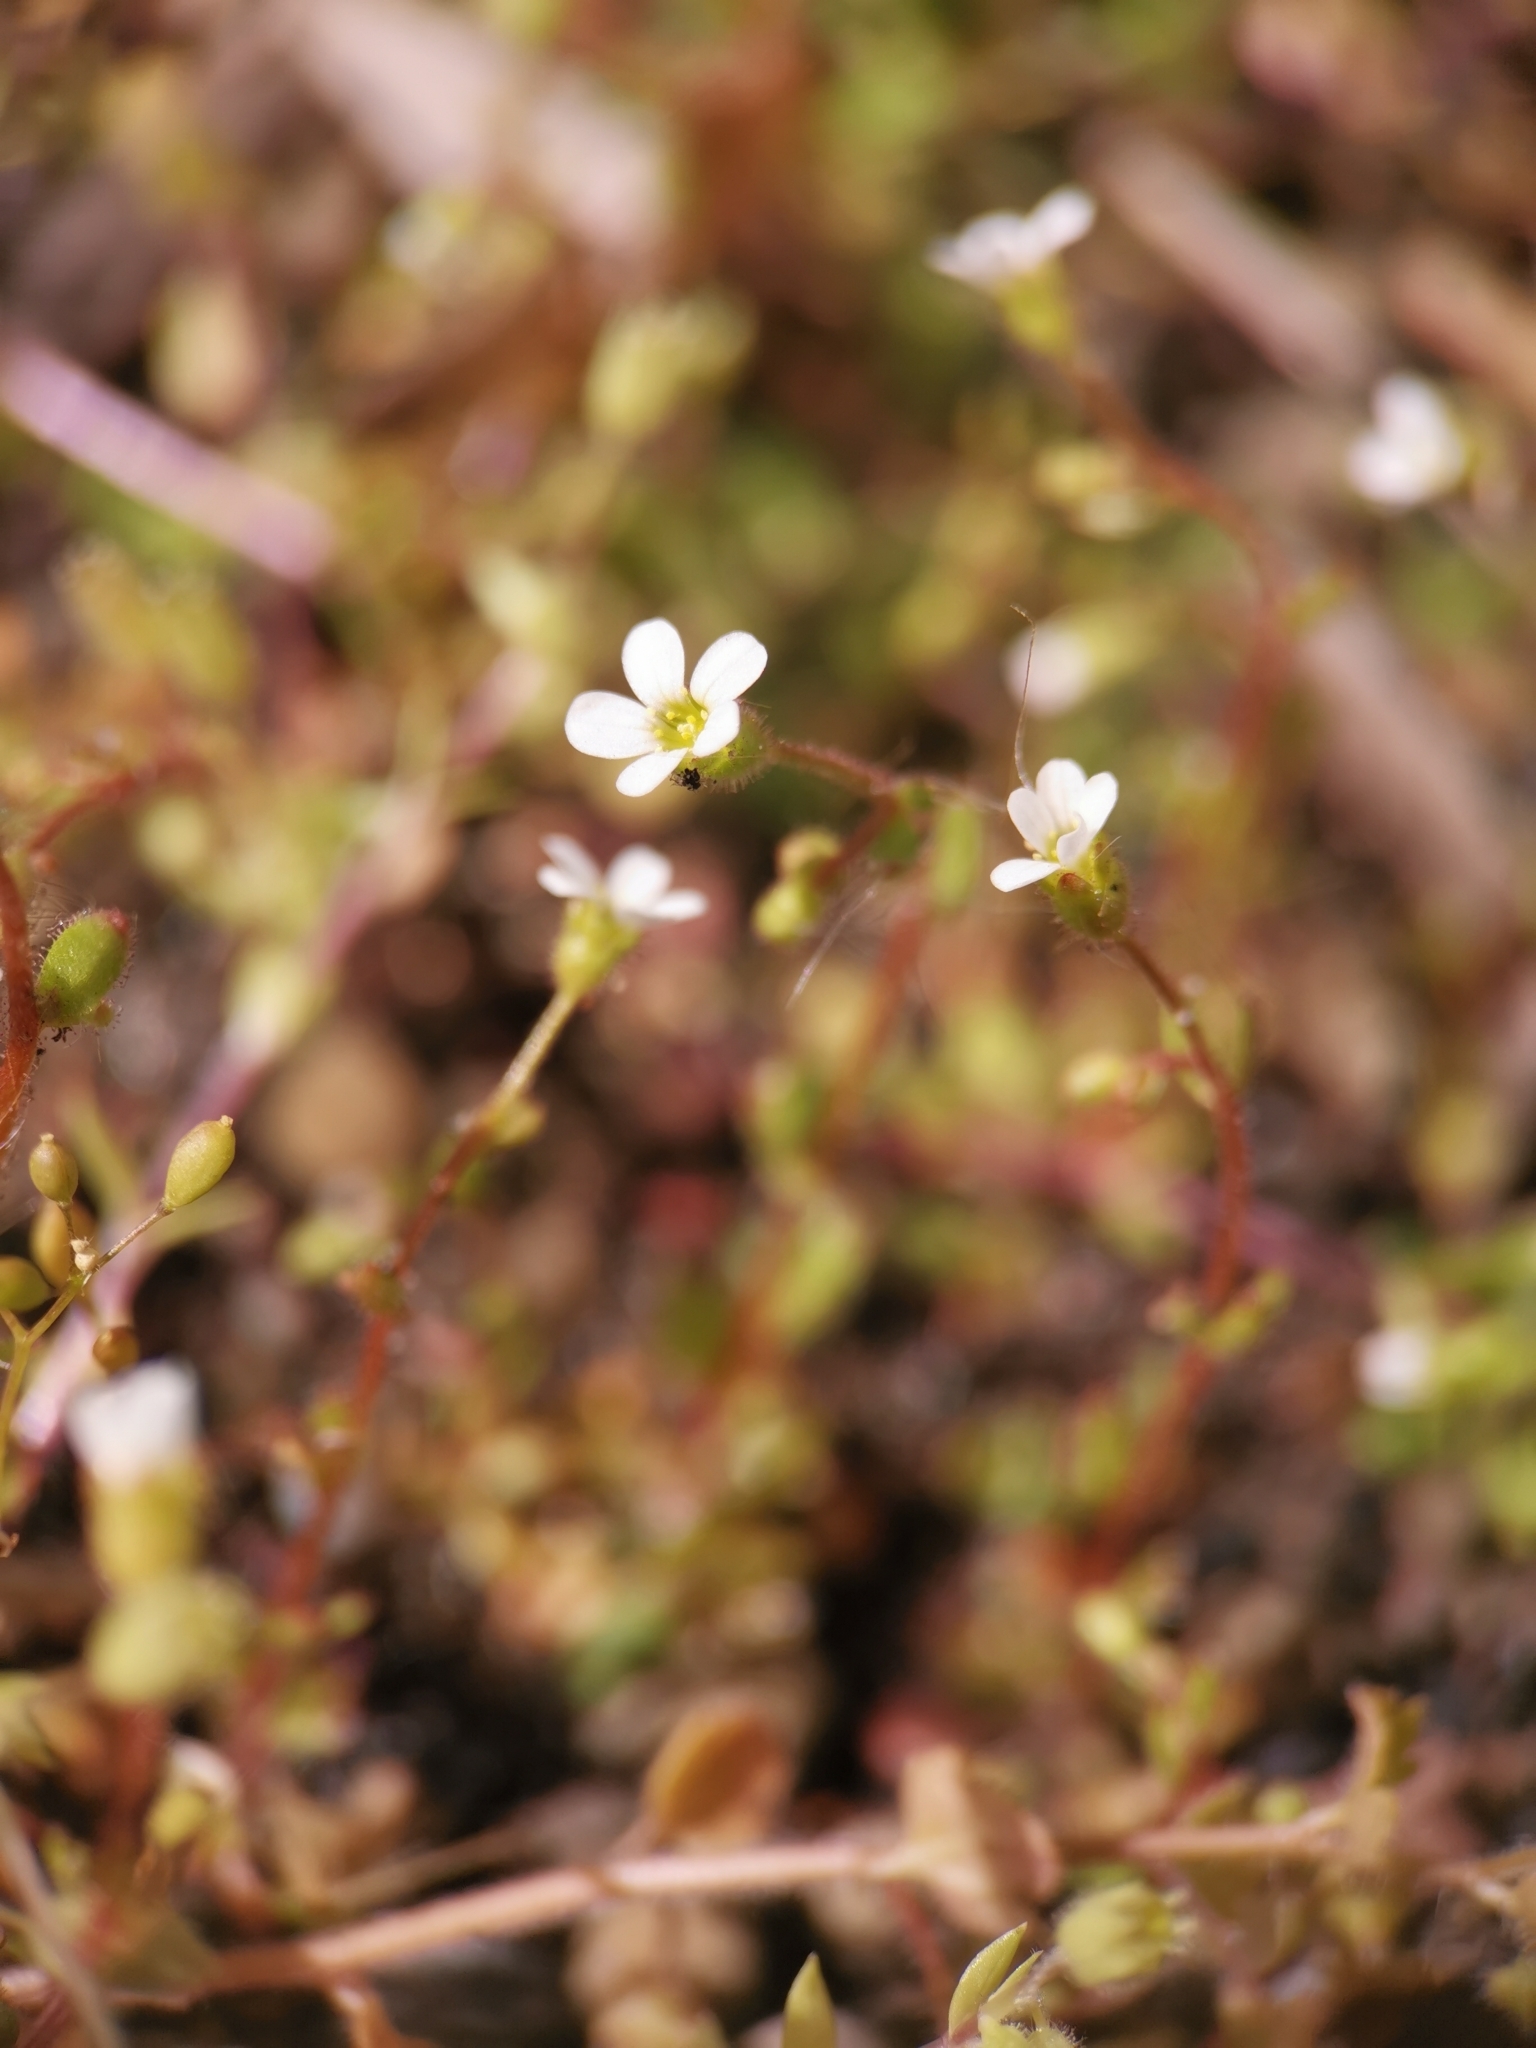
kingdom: Plantae
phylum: Tracheophyta
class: Magnoliopsida
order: Saxifragales
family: Saxifragaceae
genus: Saxifraga
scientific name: Saxifraga tridactylites
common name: Rue-leaved saxifrage
